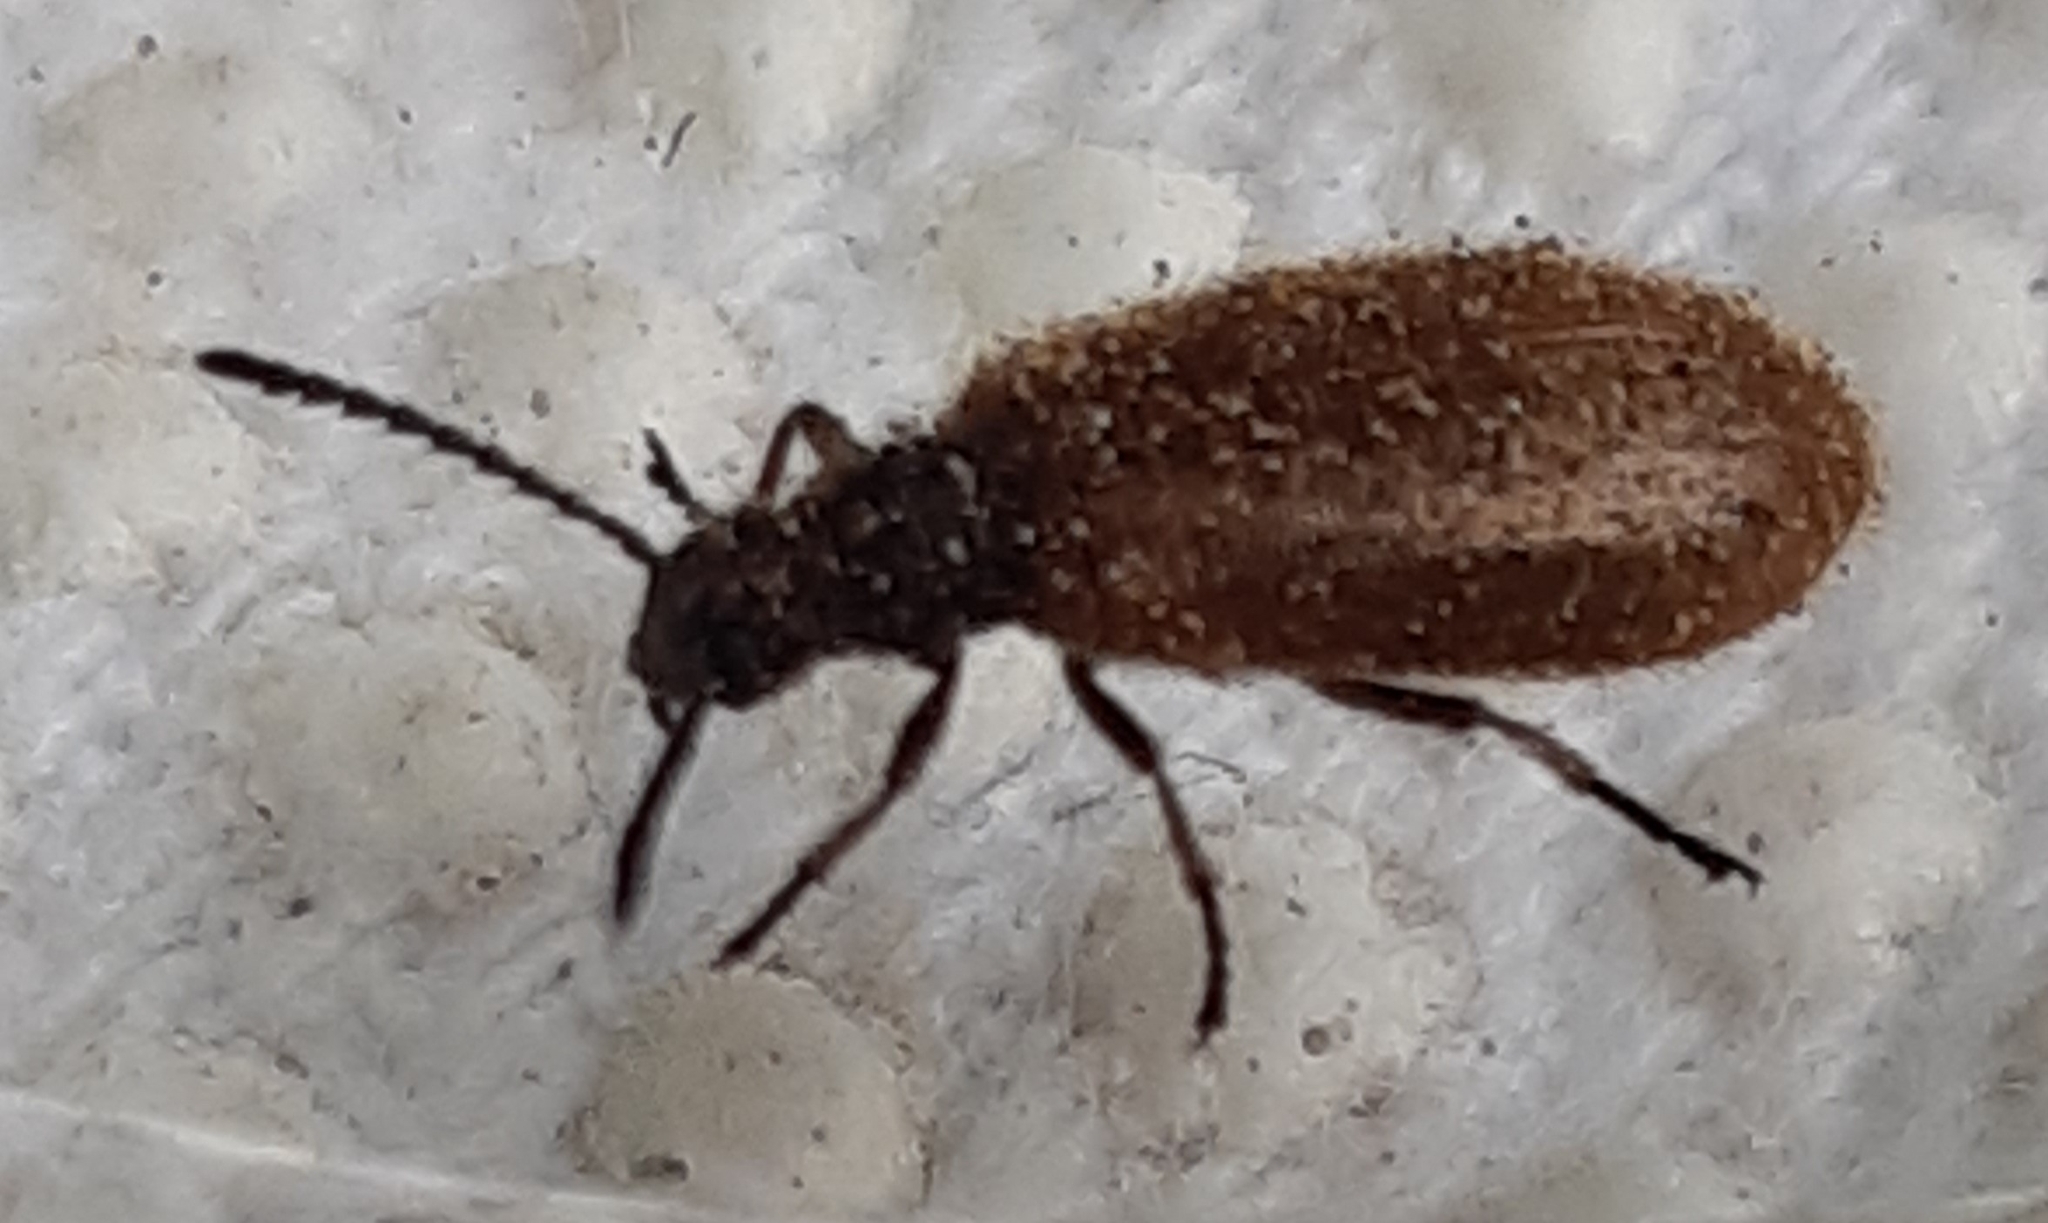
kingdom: Animalia
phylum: Arthropoda
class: Insecta
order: Coleoptera
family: Tenebrionidae
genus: Lagria
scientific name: Lagria hirta
